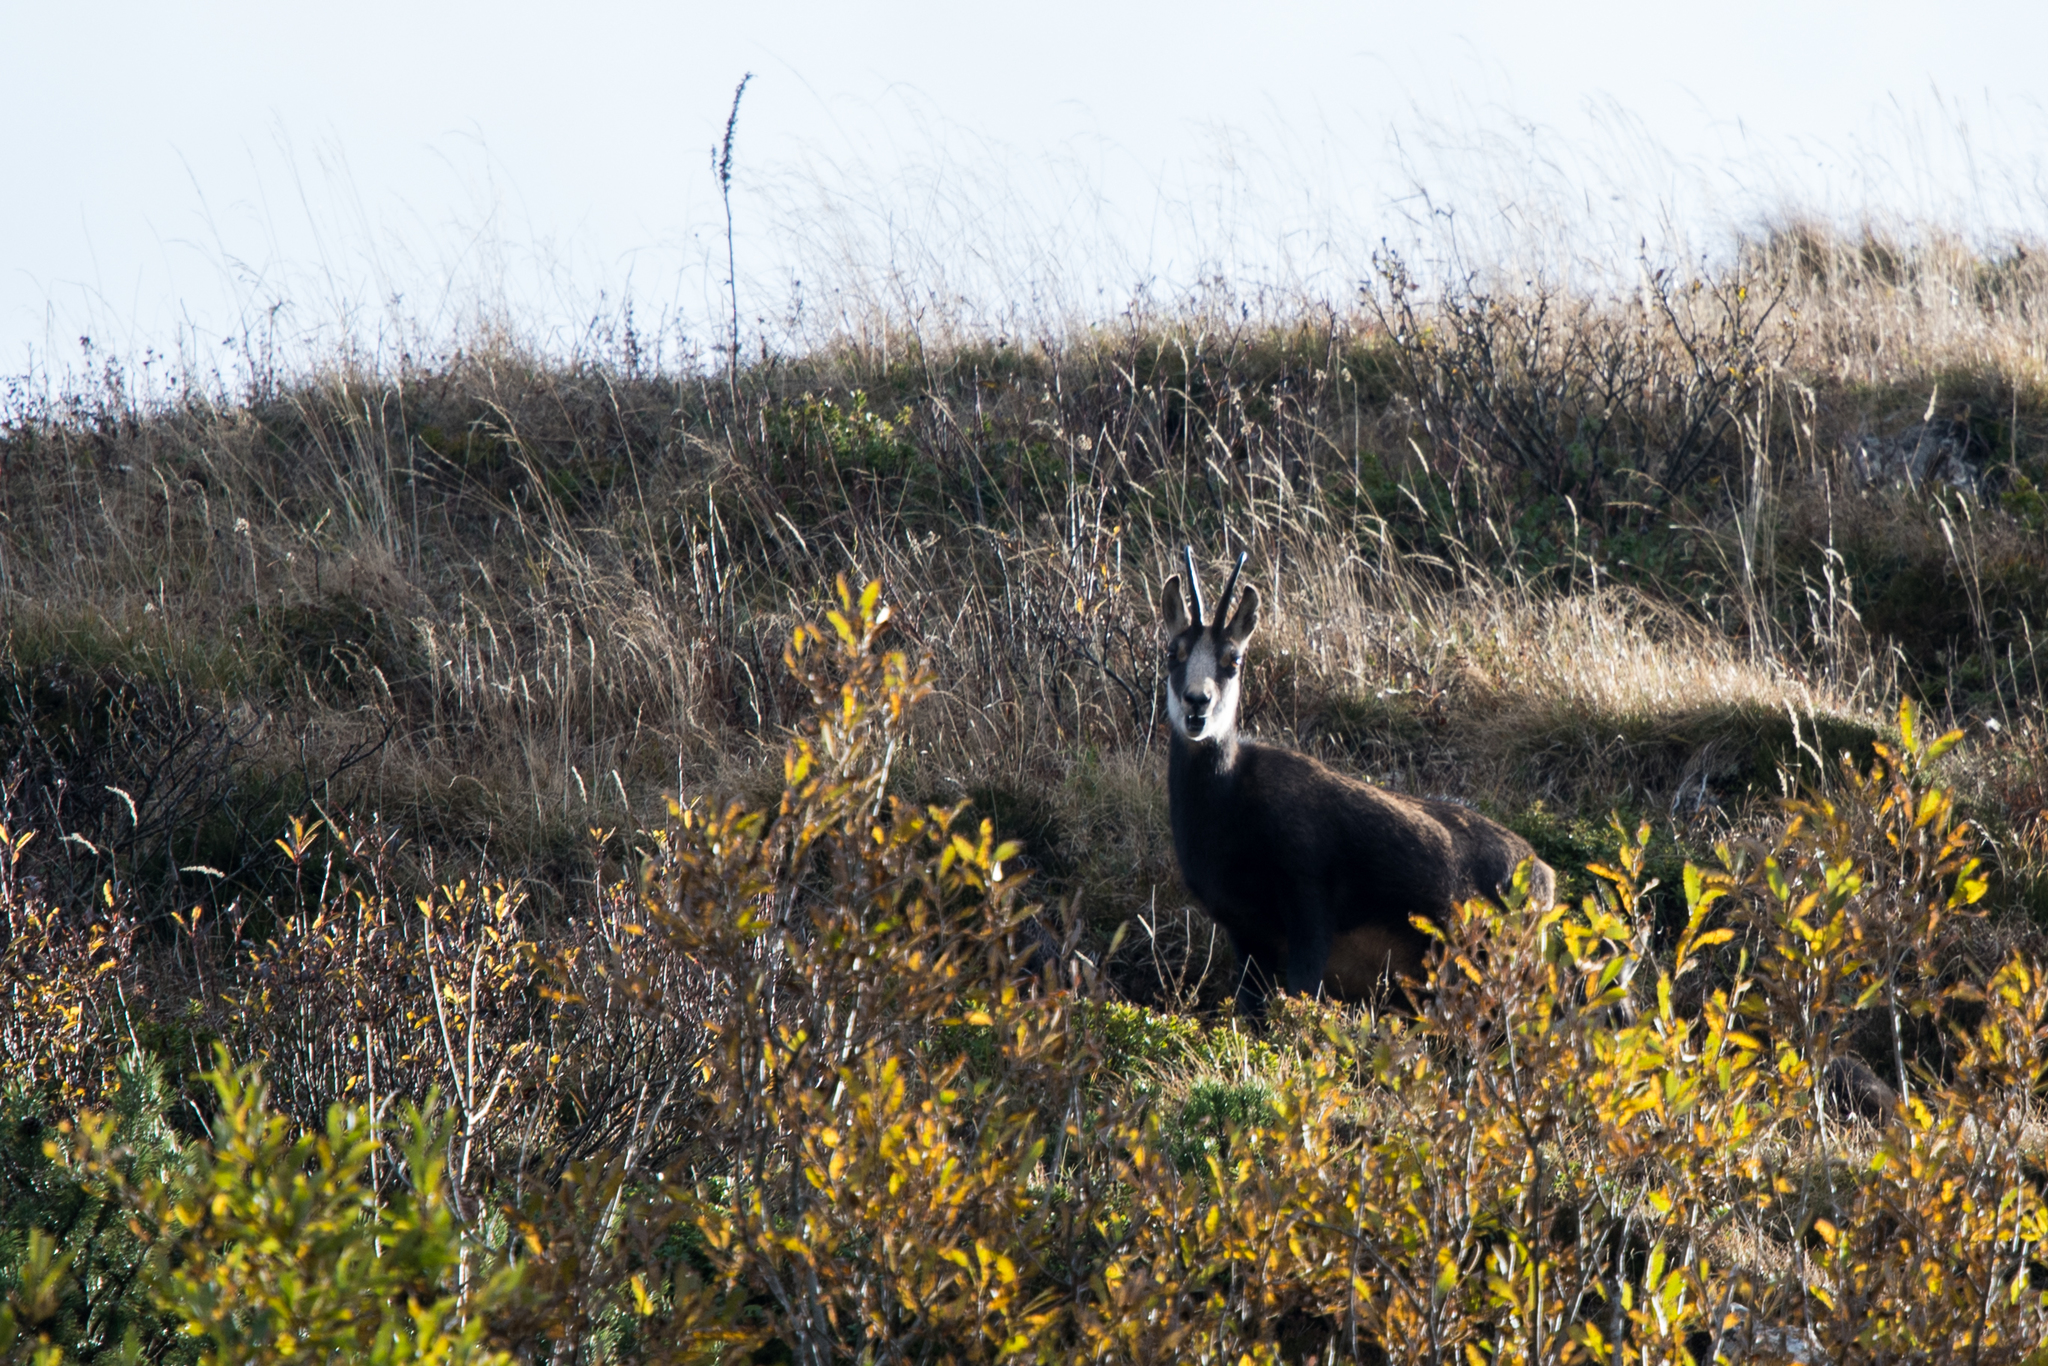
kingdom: Animalia
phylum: Chordata
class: Mammalia
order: Artiodactyla
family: Bovidae
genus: Rupicapra
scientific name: Rupicapra rupicapra
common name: Chamois
